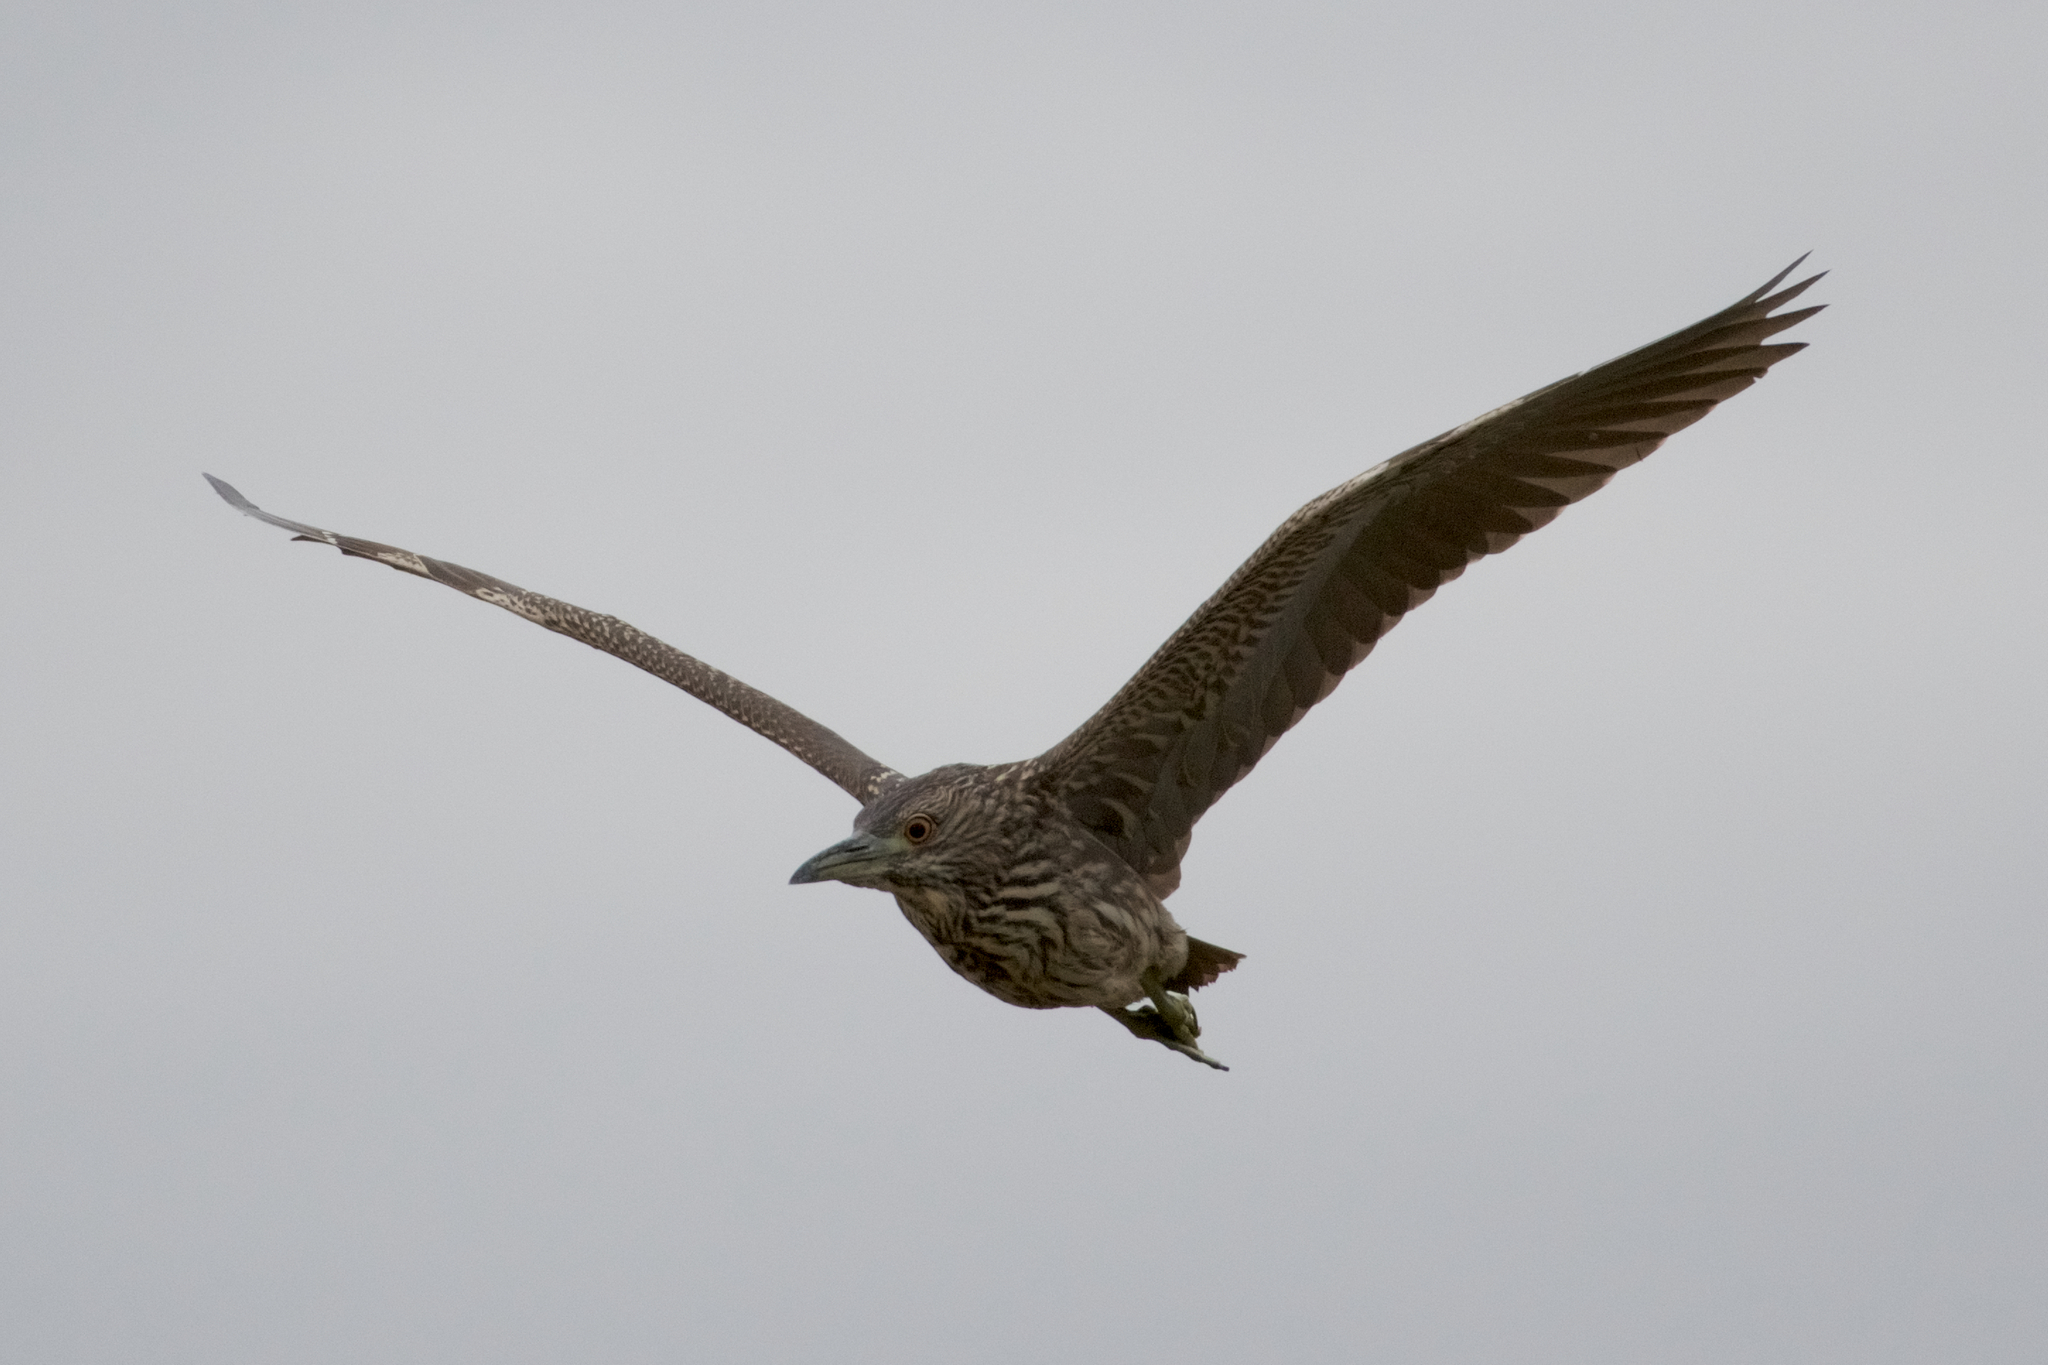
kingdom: Animalia
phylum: Chordata
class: Aves
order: Pelecaniformes
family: Ardeidae
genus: Nycticorax
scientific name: Nycticorax nycticorax
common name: Black-crowned night heron
